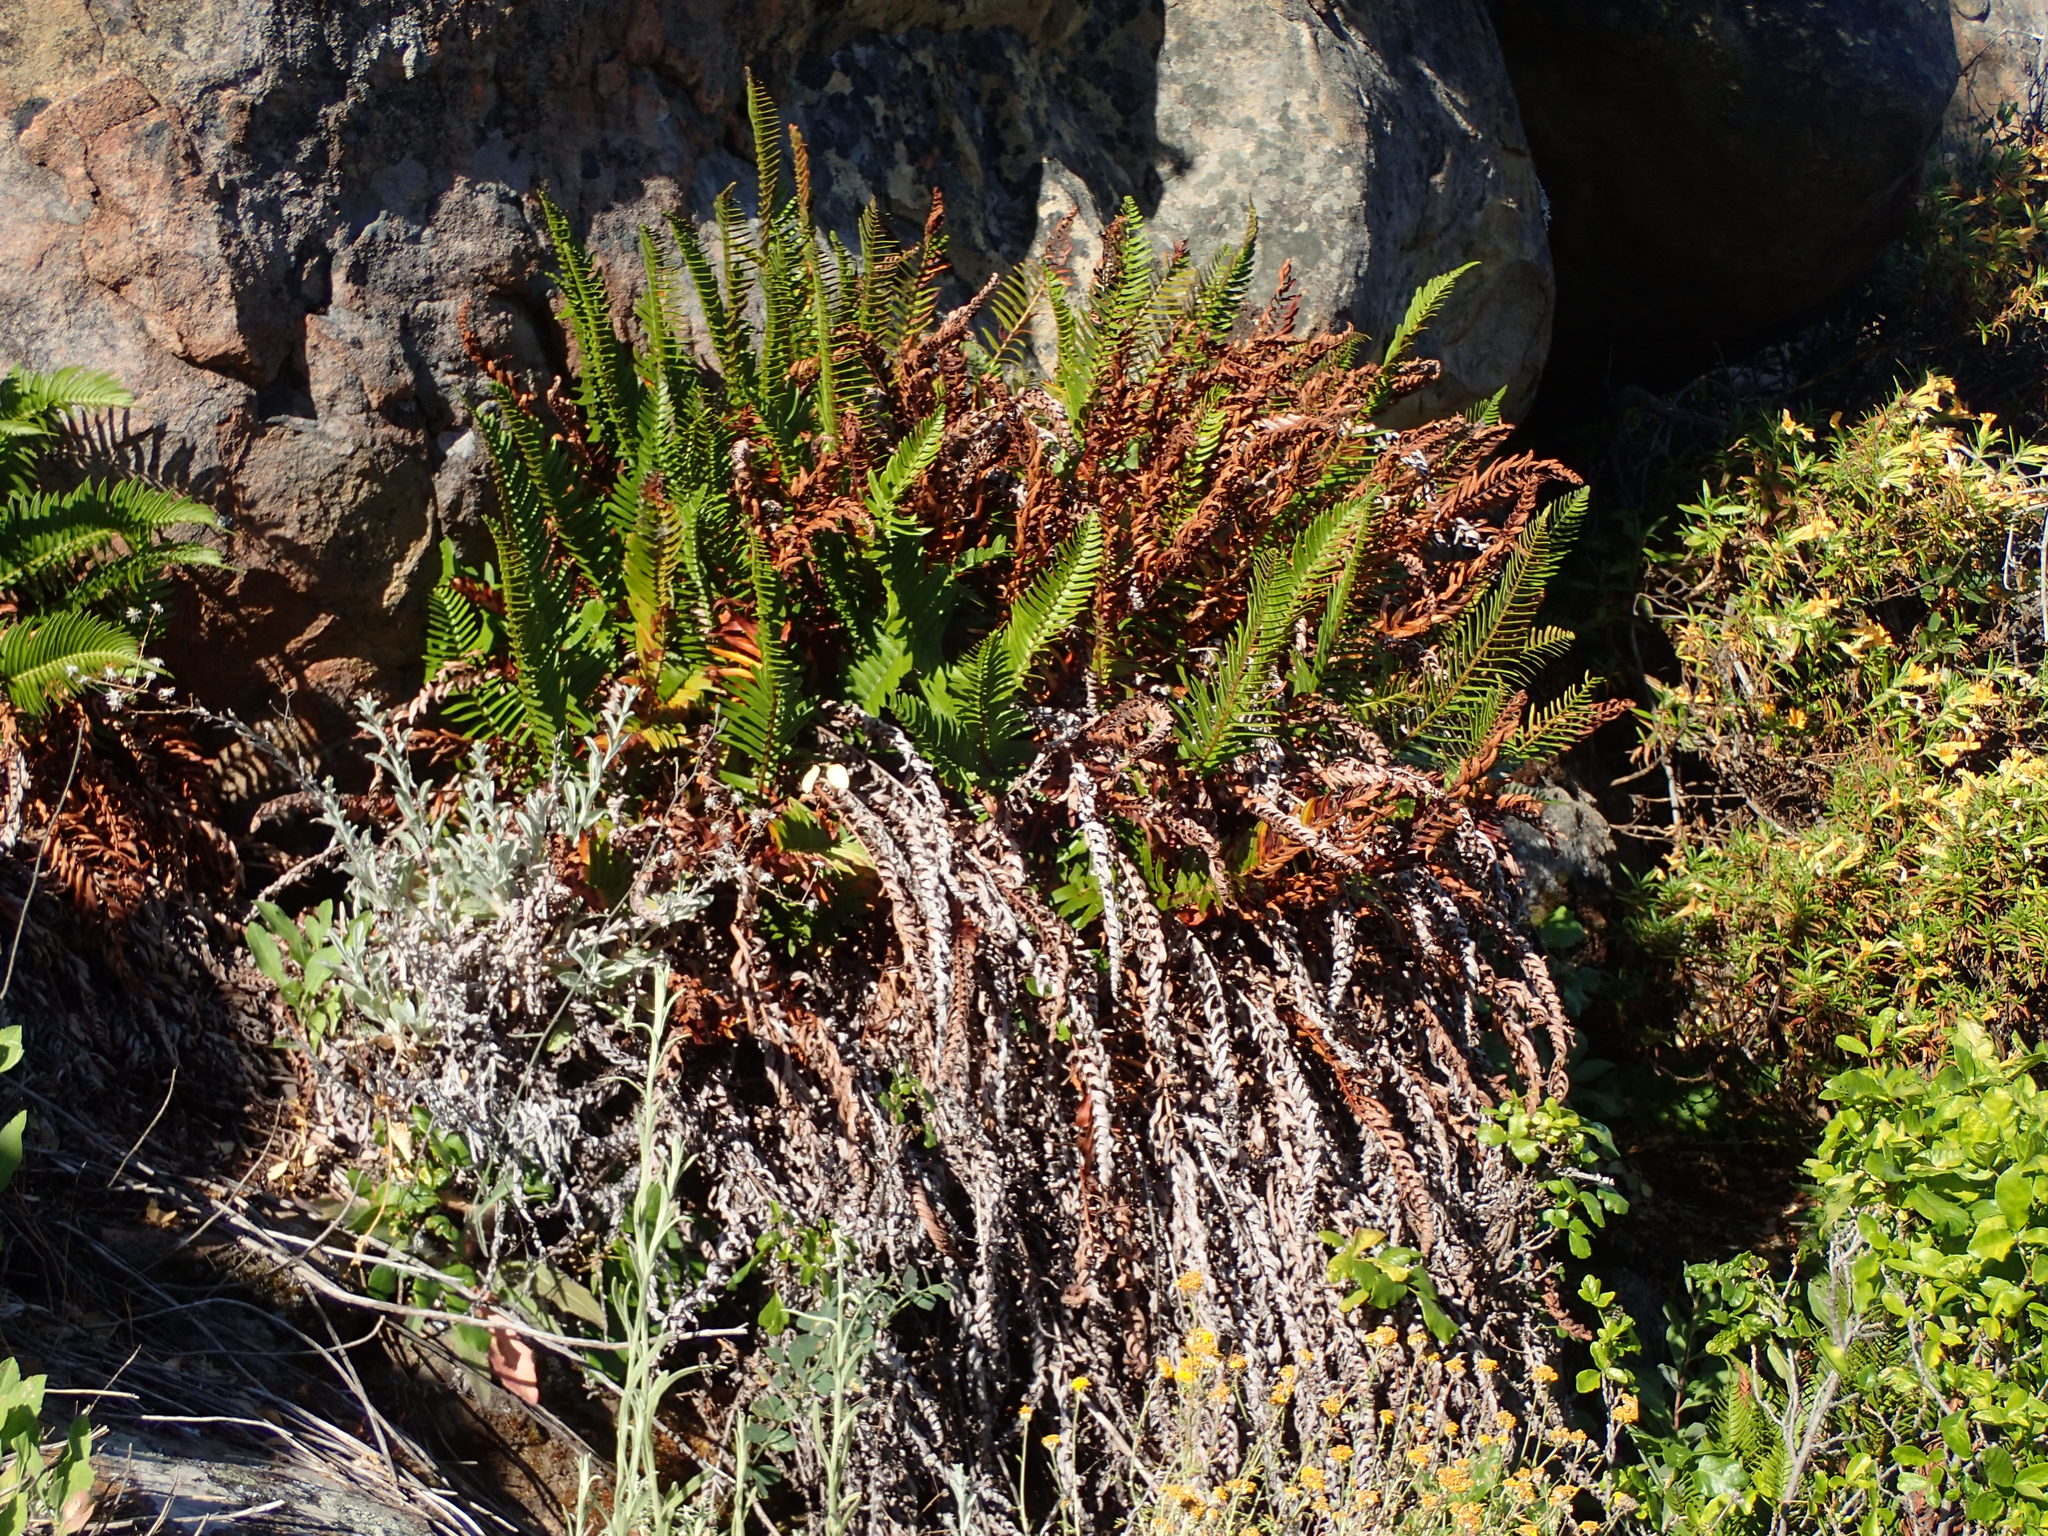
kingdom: Plantae
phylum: Tracheophyta
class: Polypodiopsida
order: Polypodiales
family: Dryopteridaceae
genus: Polystichum
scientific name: Polystichum munitum
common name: Western sword-fern
